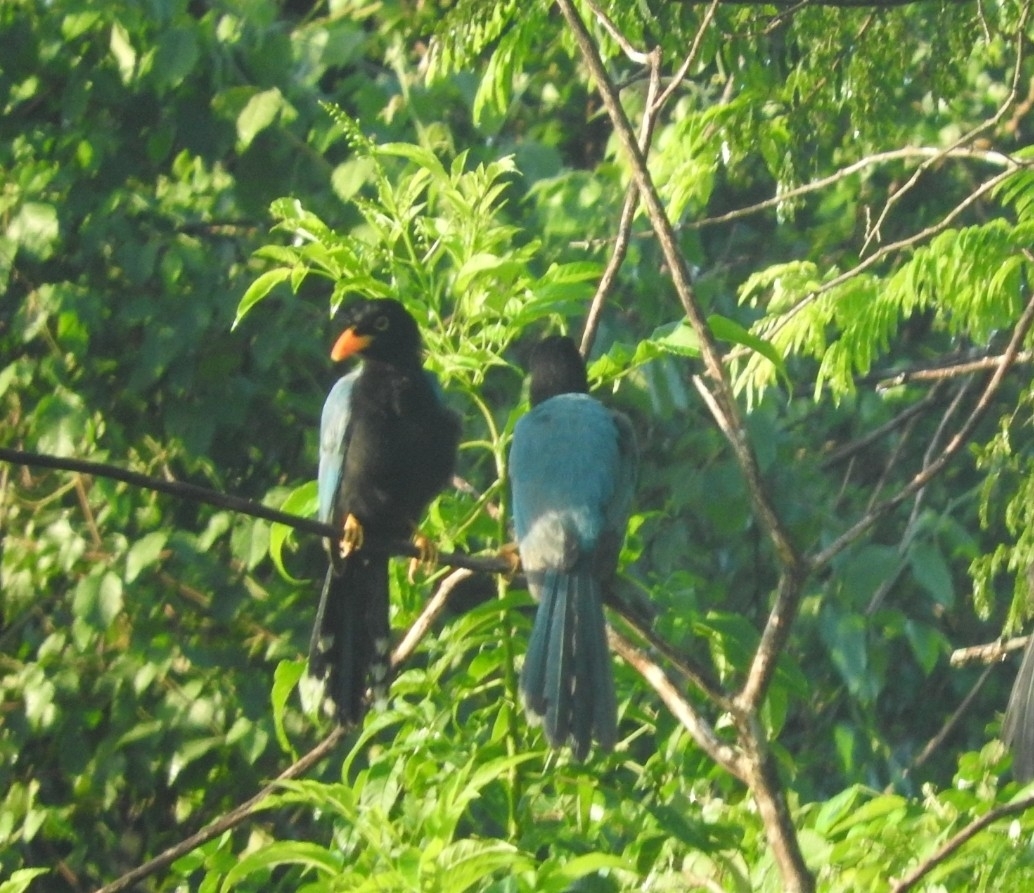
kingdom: Animalia
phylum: Chordata
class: Aves
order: Passeriformes
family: Corvidae
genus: Cyanocorax
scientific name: Cyanocorax yucatanicus
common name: Yucatan jay
